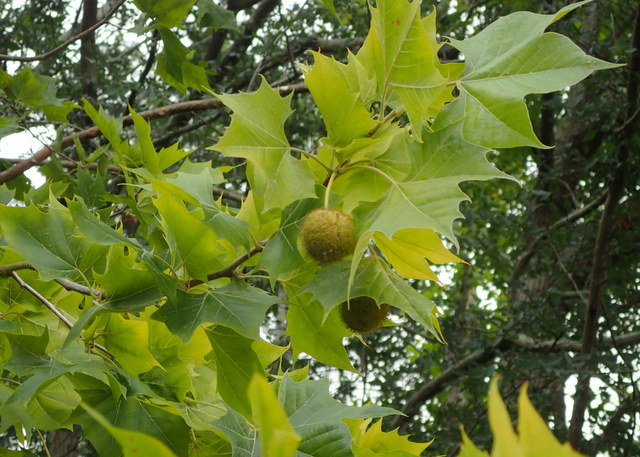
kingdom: Plantae
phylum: Tracheophyta
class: Magnoliopsida
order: Proteales
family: Platanaceae
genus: Platanus
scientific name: Platanus occidentalis
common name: American sycamore
